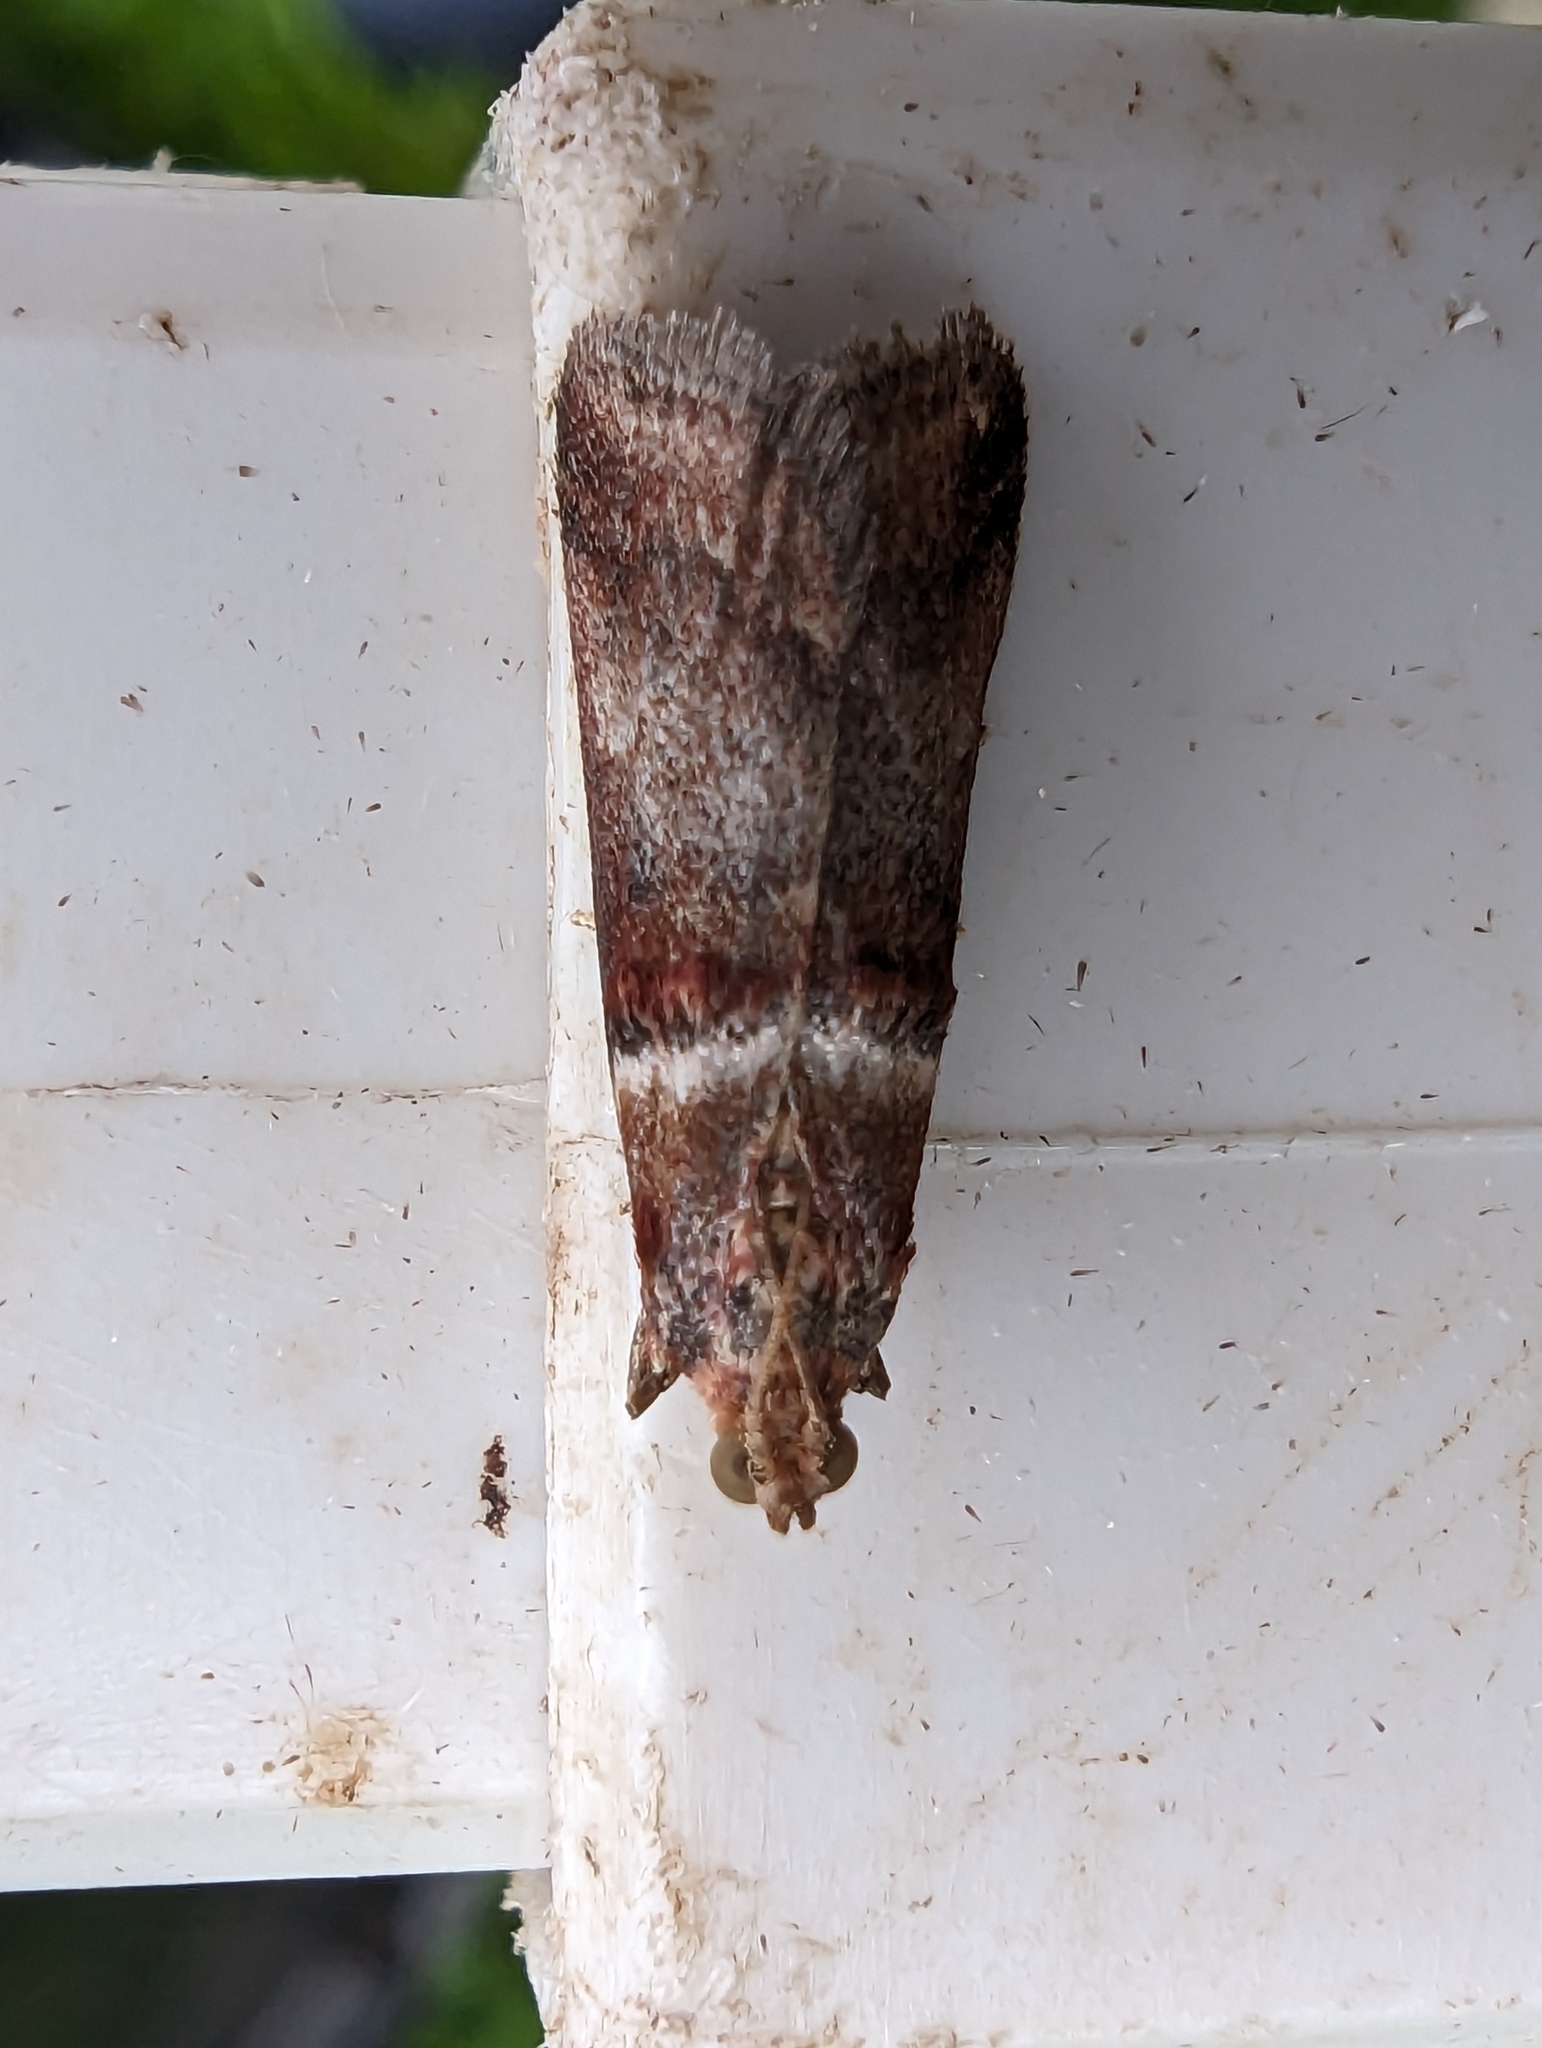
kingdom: Animalia
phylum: Arthropoda
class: Insecta
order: Lepidoptera
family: Pyralidae
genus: Acrobasis
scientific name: Acrobasis advenella
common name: Grey knot-horn
